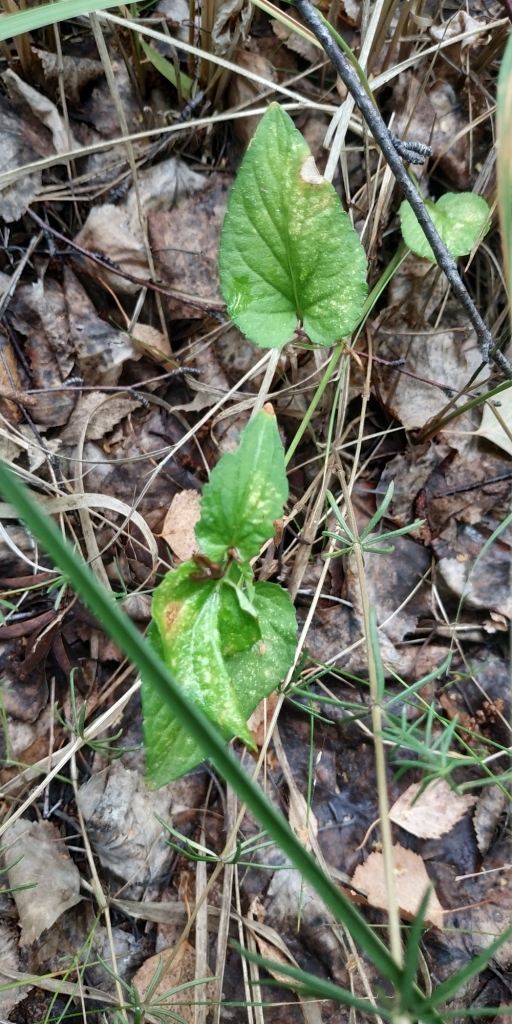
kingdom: Plantae
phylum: Tracheophyta
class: Magnoliopsida
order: Malpighiales
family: Violaceae
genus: Viola
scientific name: Viola
